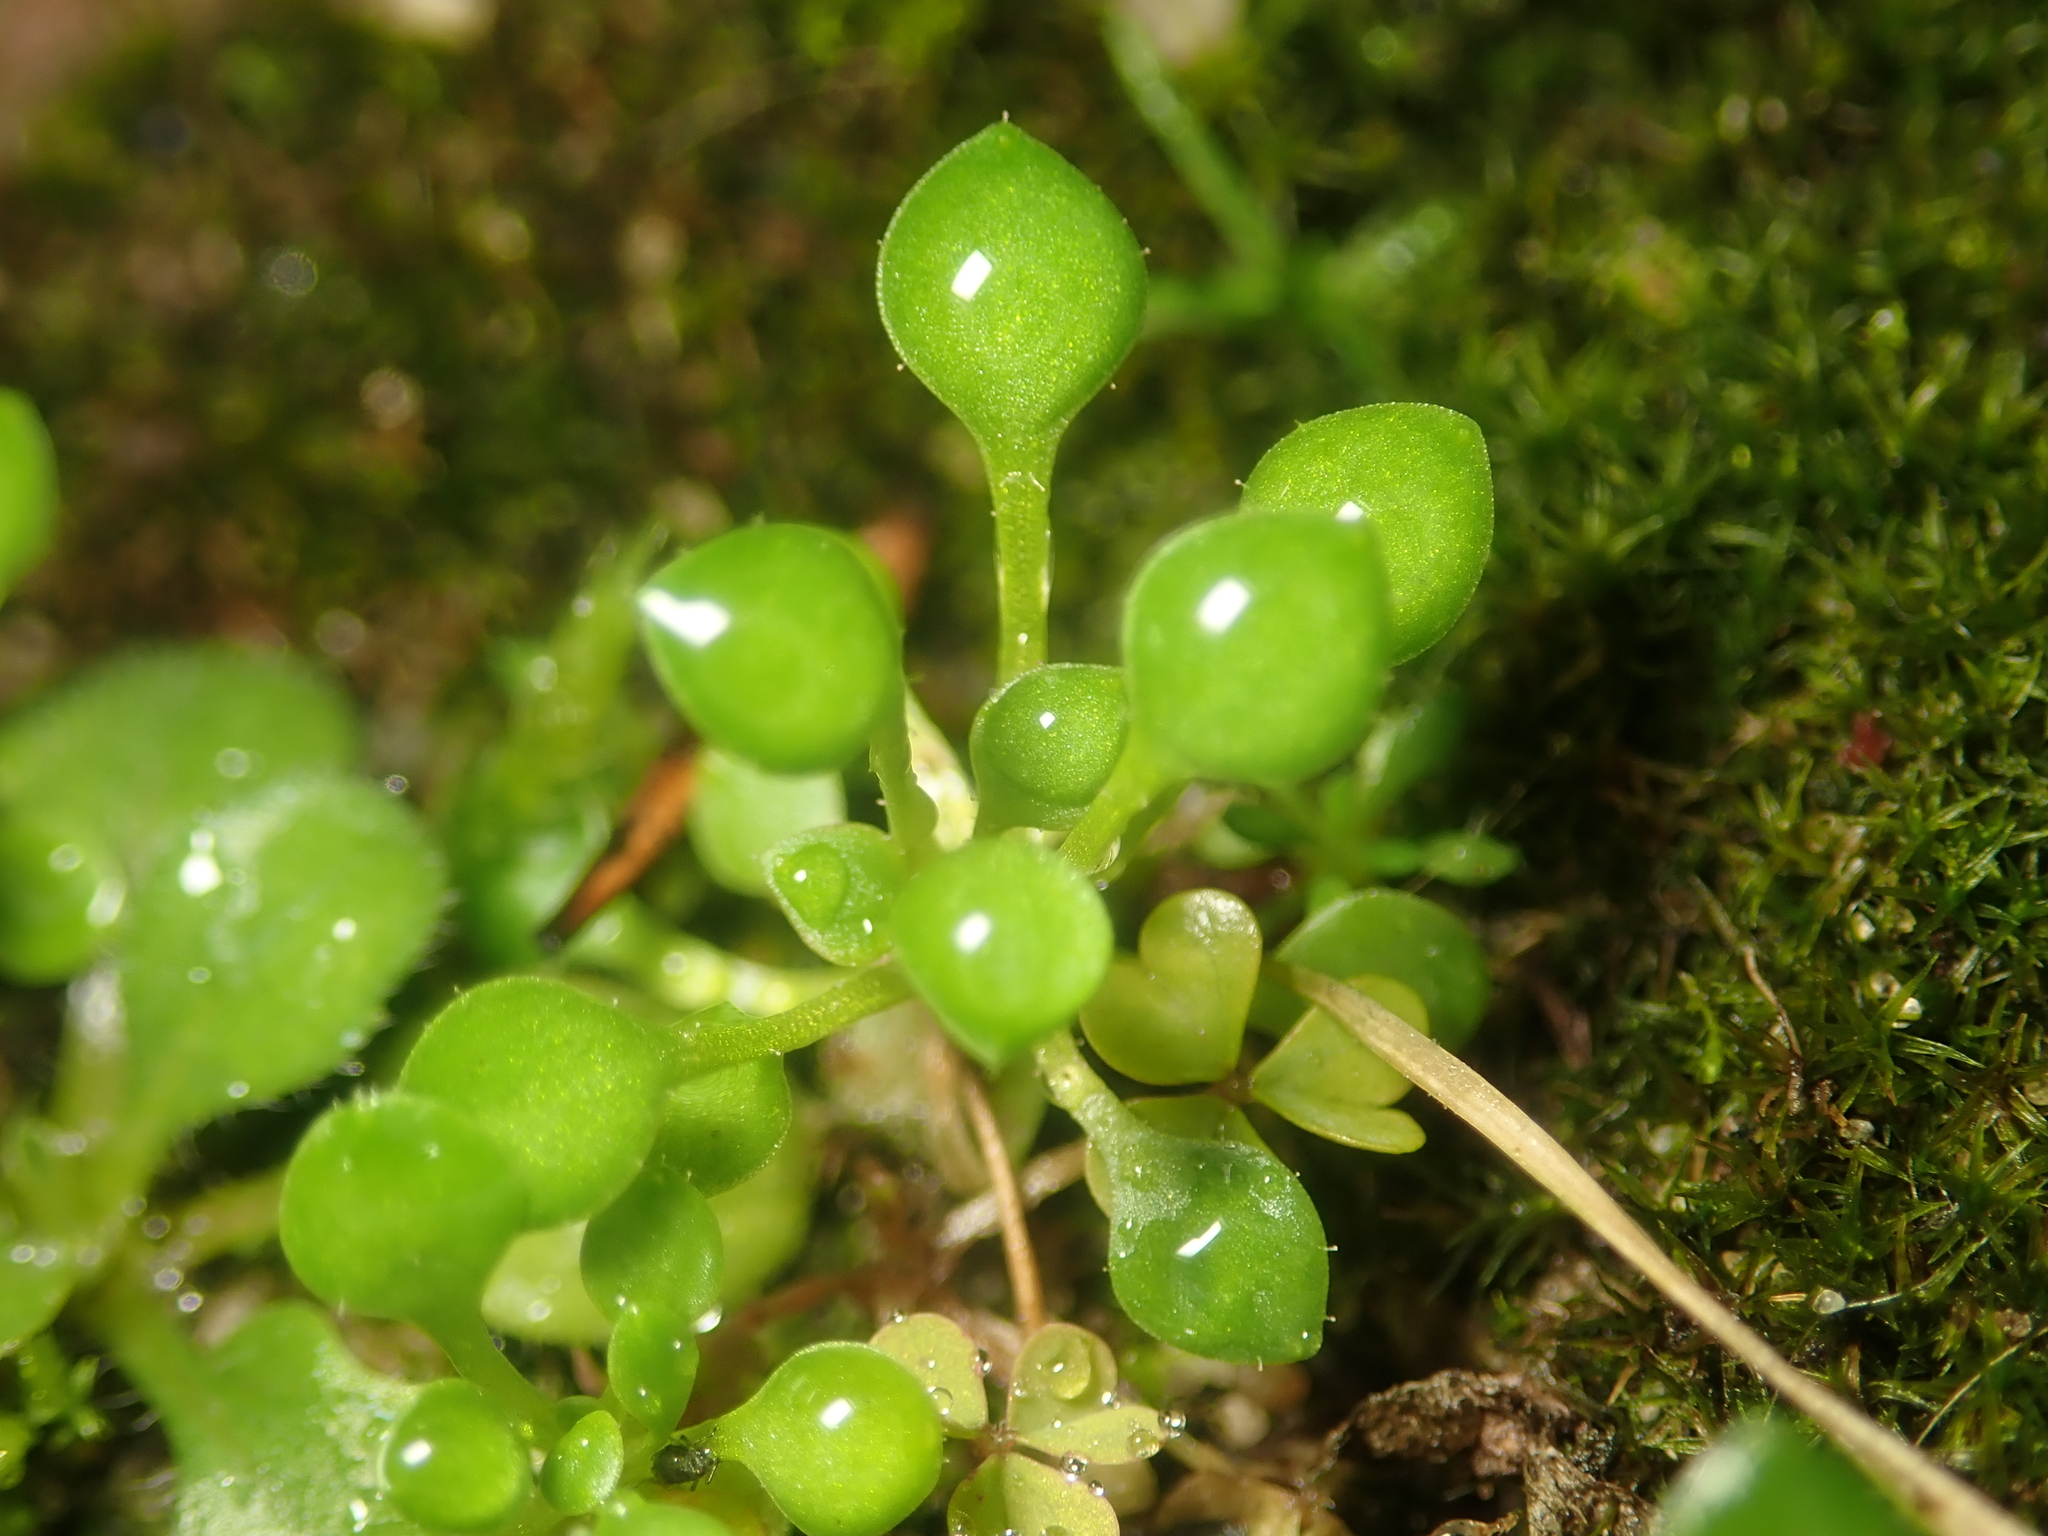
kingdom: Plantae
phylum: Tracheophyta
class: Magnoliopsida
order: Saxifragales
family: Saxifragaceae
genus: Saxifraga
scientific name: Saxifraga tridactylites
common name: Rue-leaved saxifrage
